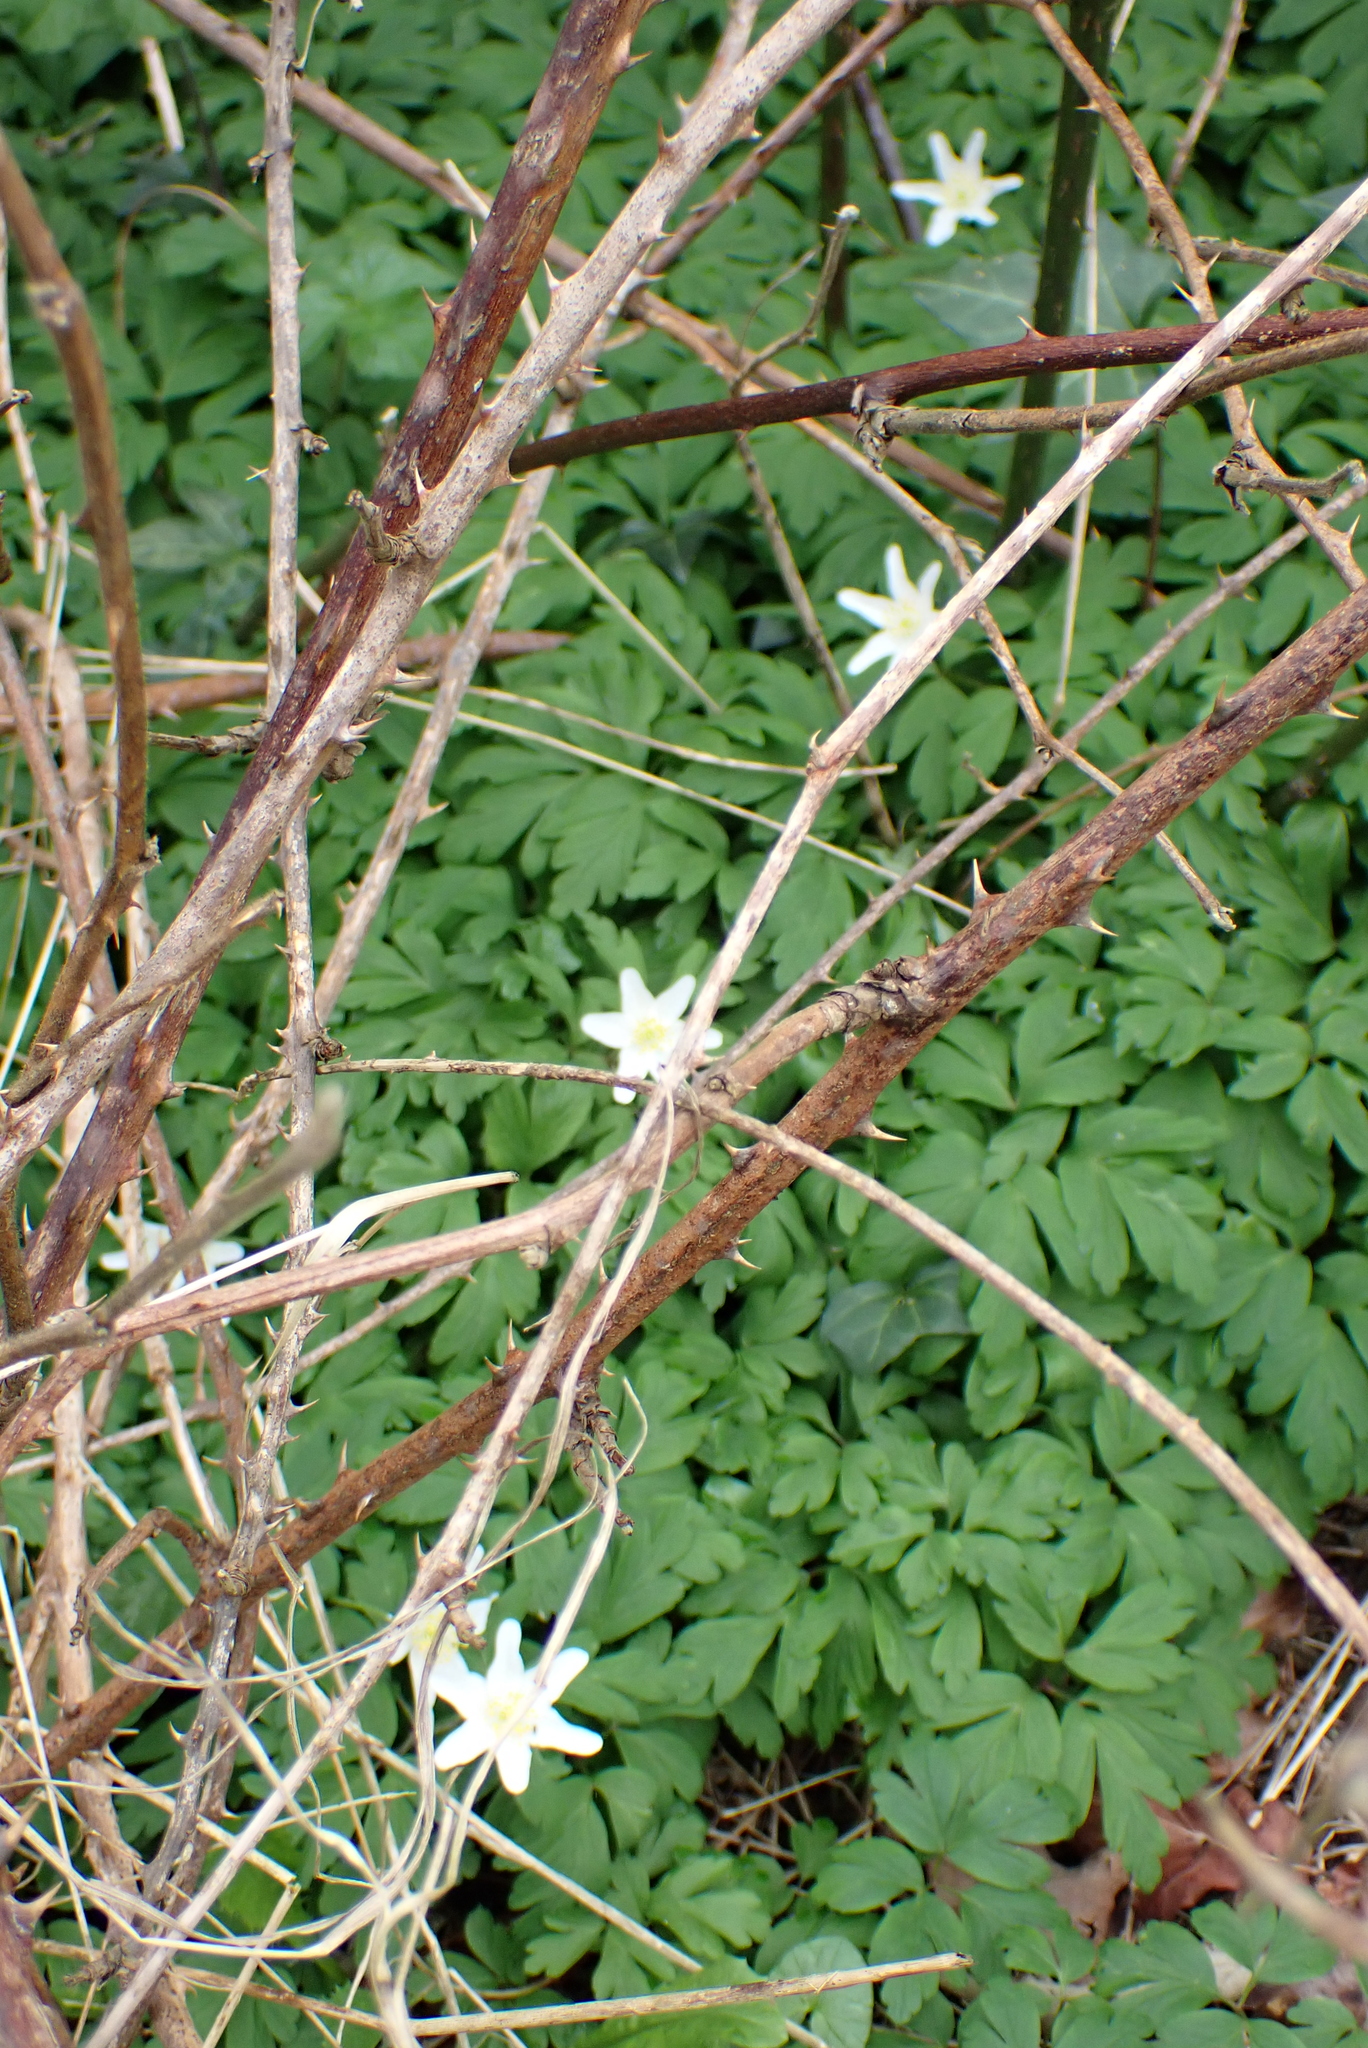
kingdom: Plantae
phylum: Tracheophyta
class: Magnoliopsida
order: Ranunculales
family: Ranunculaceae
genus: Anemone
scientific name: Anemone nemorosa
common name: Wood anemone
